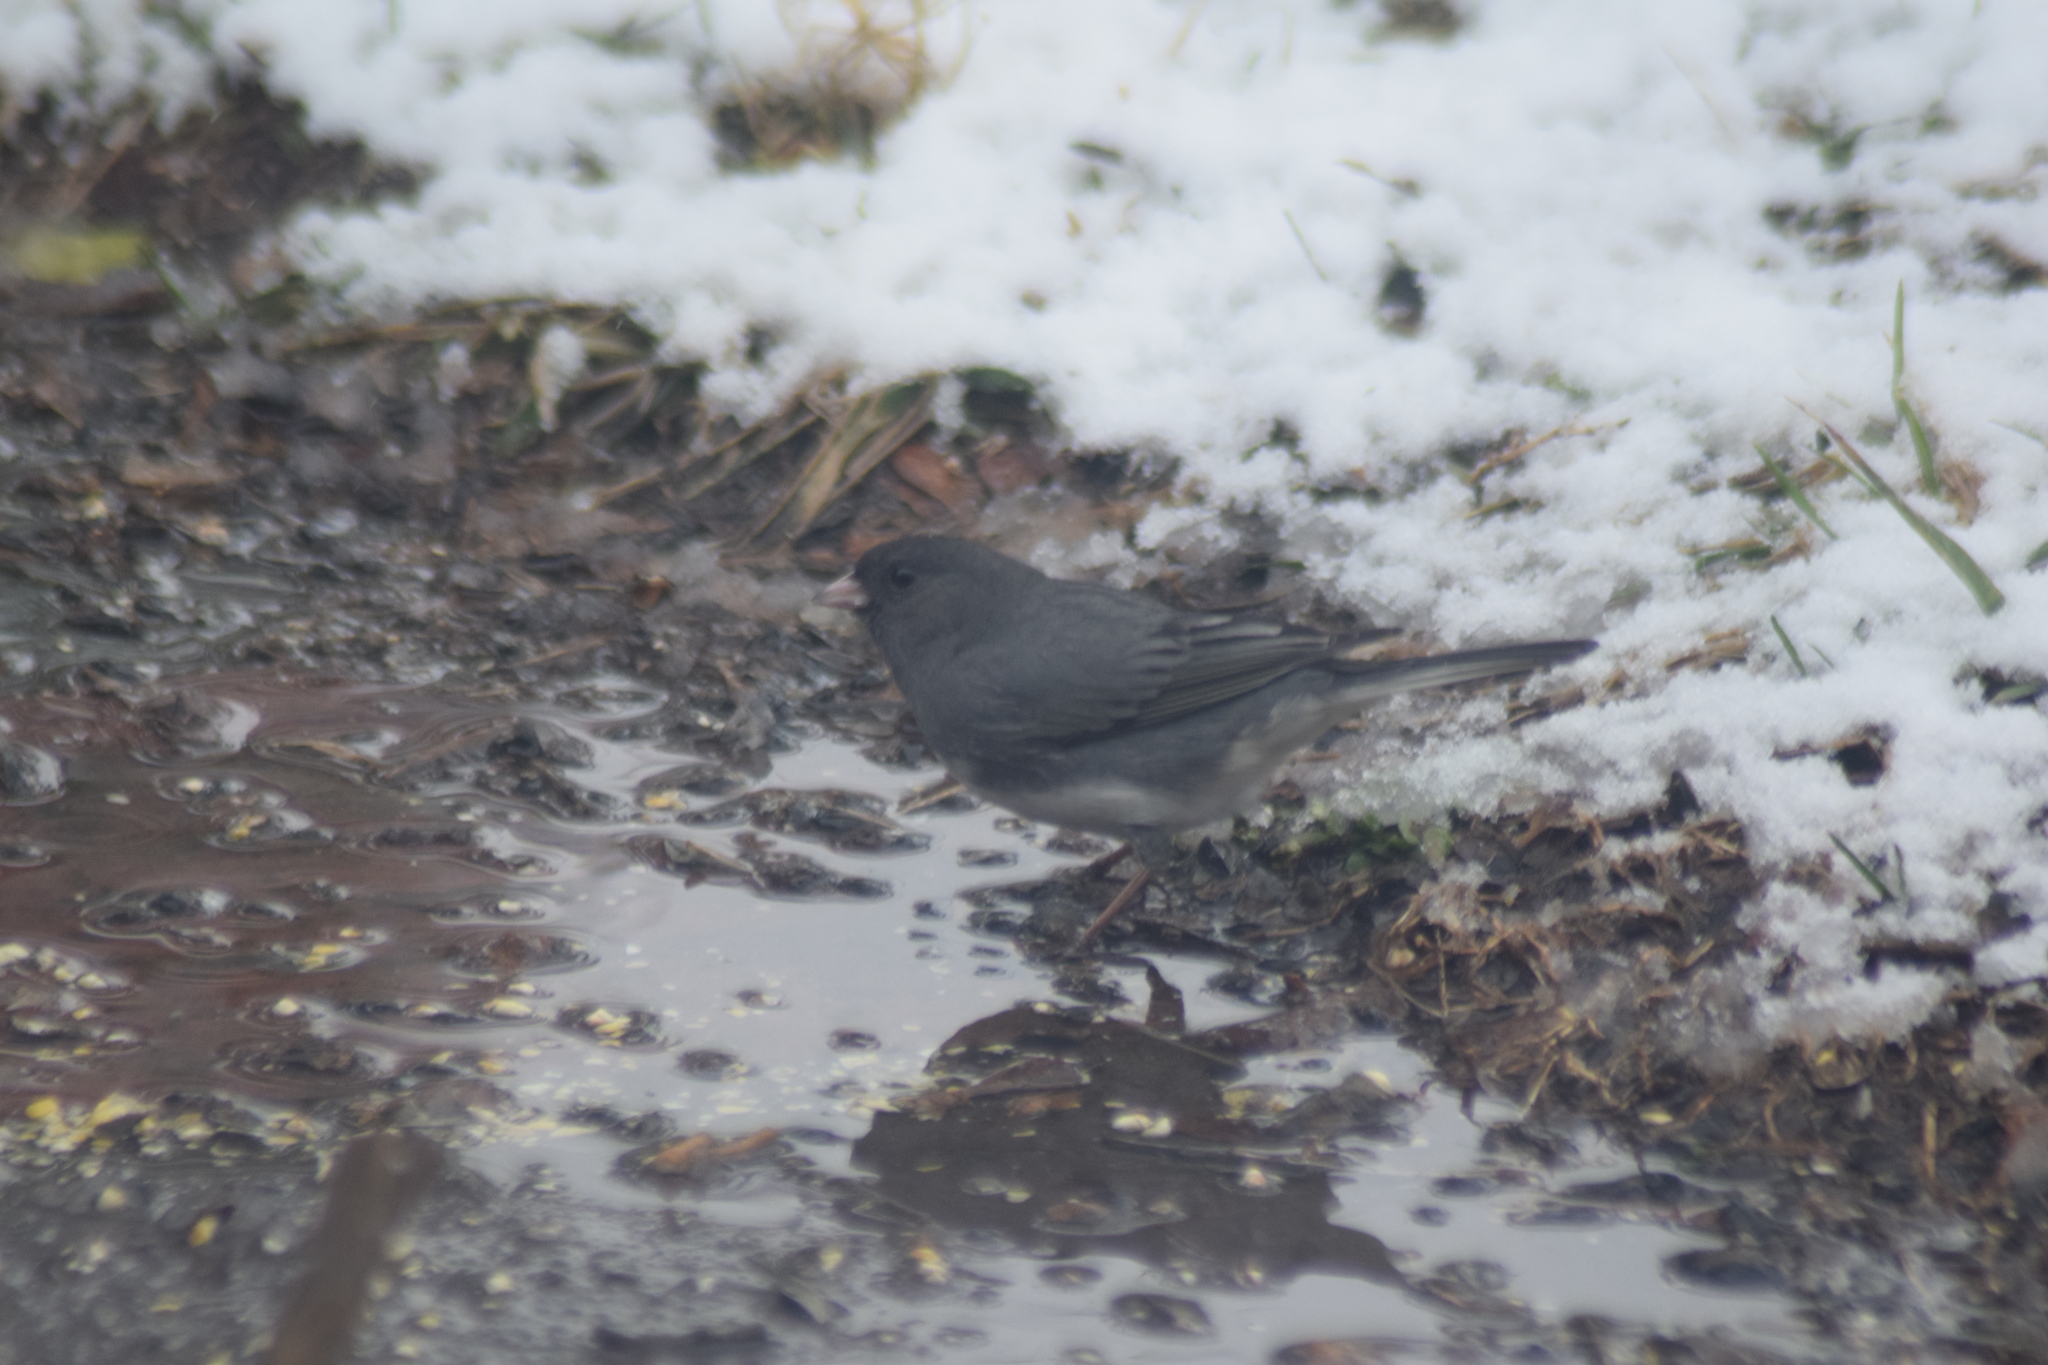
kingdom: Animalia
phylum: Chordata
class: Aves
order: Passeriformes
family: Passerellidae
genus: Junco
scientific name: Junco hyemalis
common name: Dark-eyed junco
